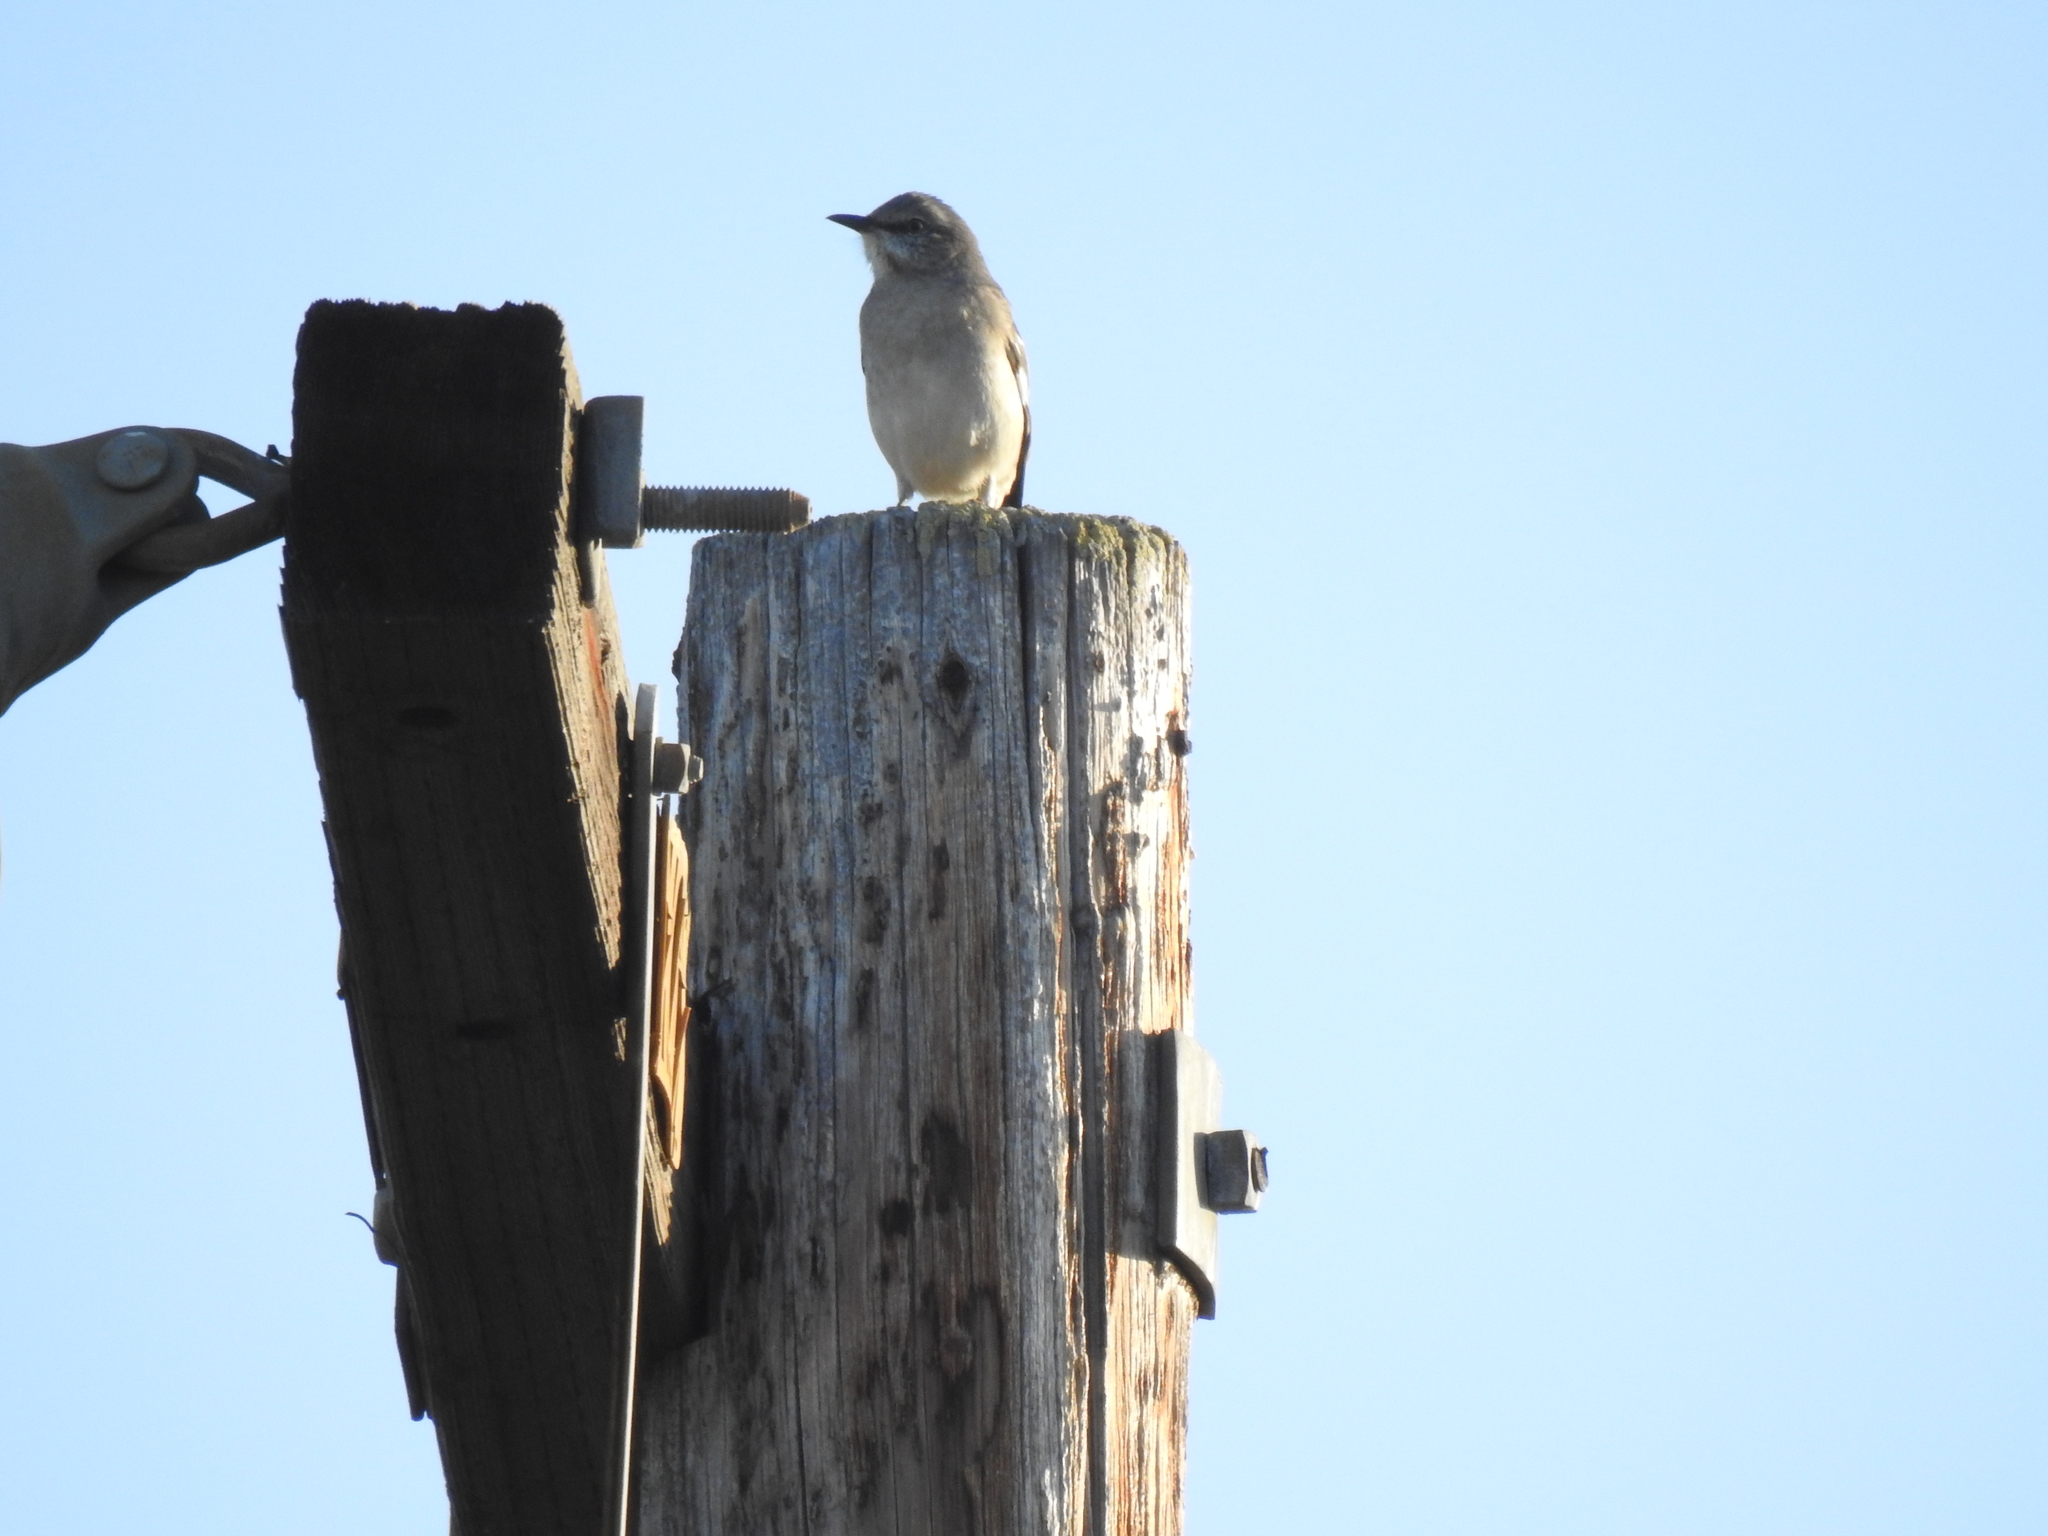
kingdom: Animalia
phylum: Chordata
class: Aves
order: Passeriformes
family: Mimidae
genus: Mimus
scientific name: Mimus polyglottos
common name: Northern mockingbird
